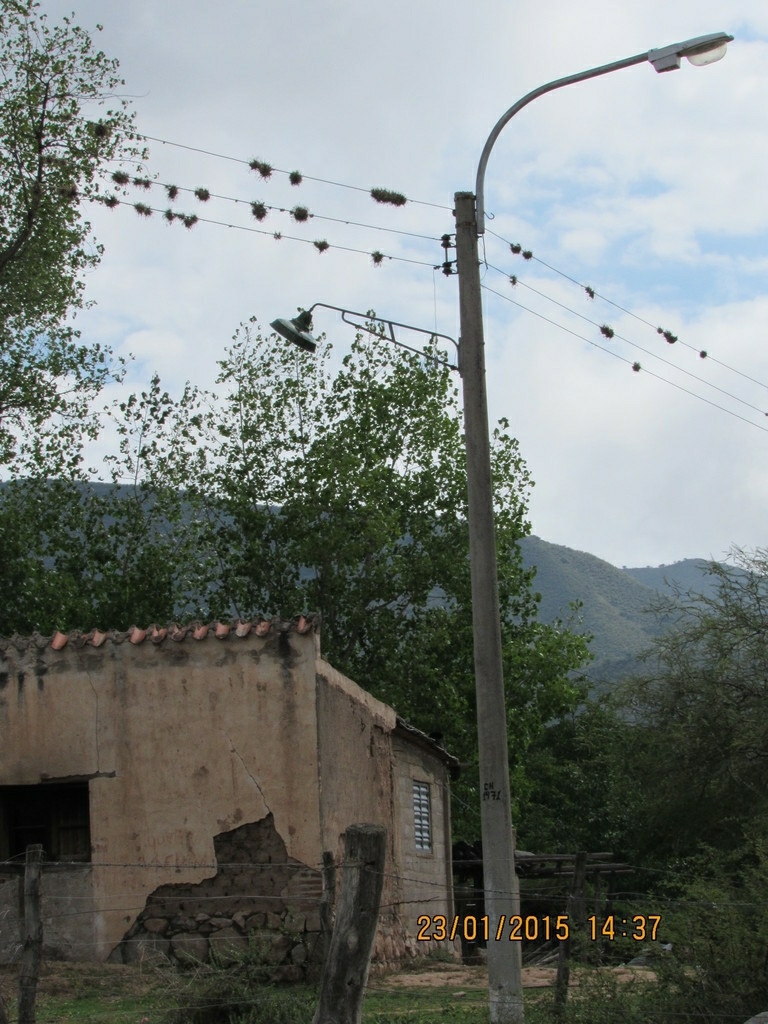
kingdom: Plantae
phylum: Tracheophyta
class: Liliopsida
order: Poales
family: Bromeliaceae
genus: Tillandsia
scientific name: Tillandsia pedicellata
